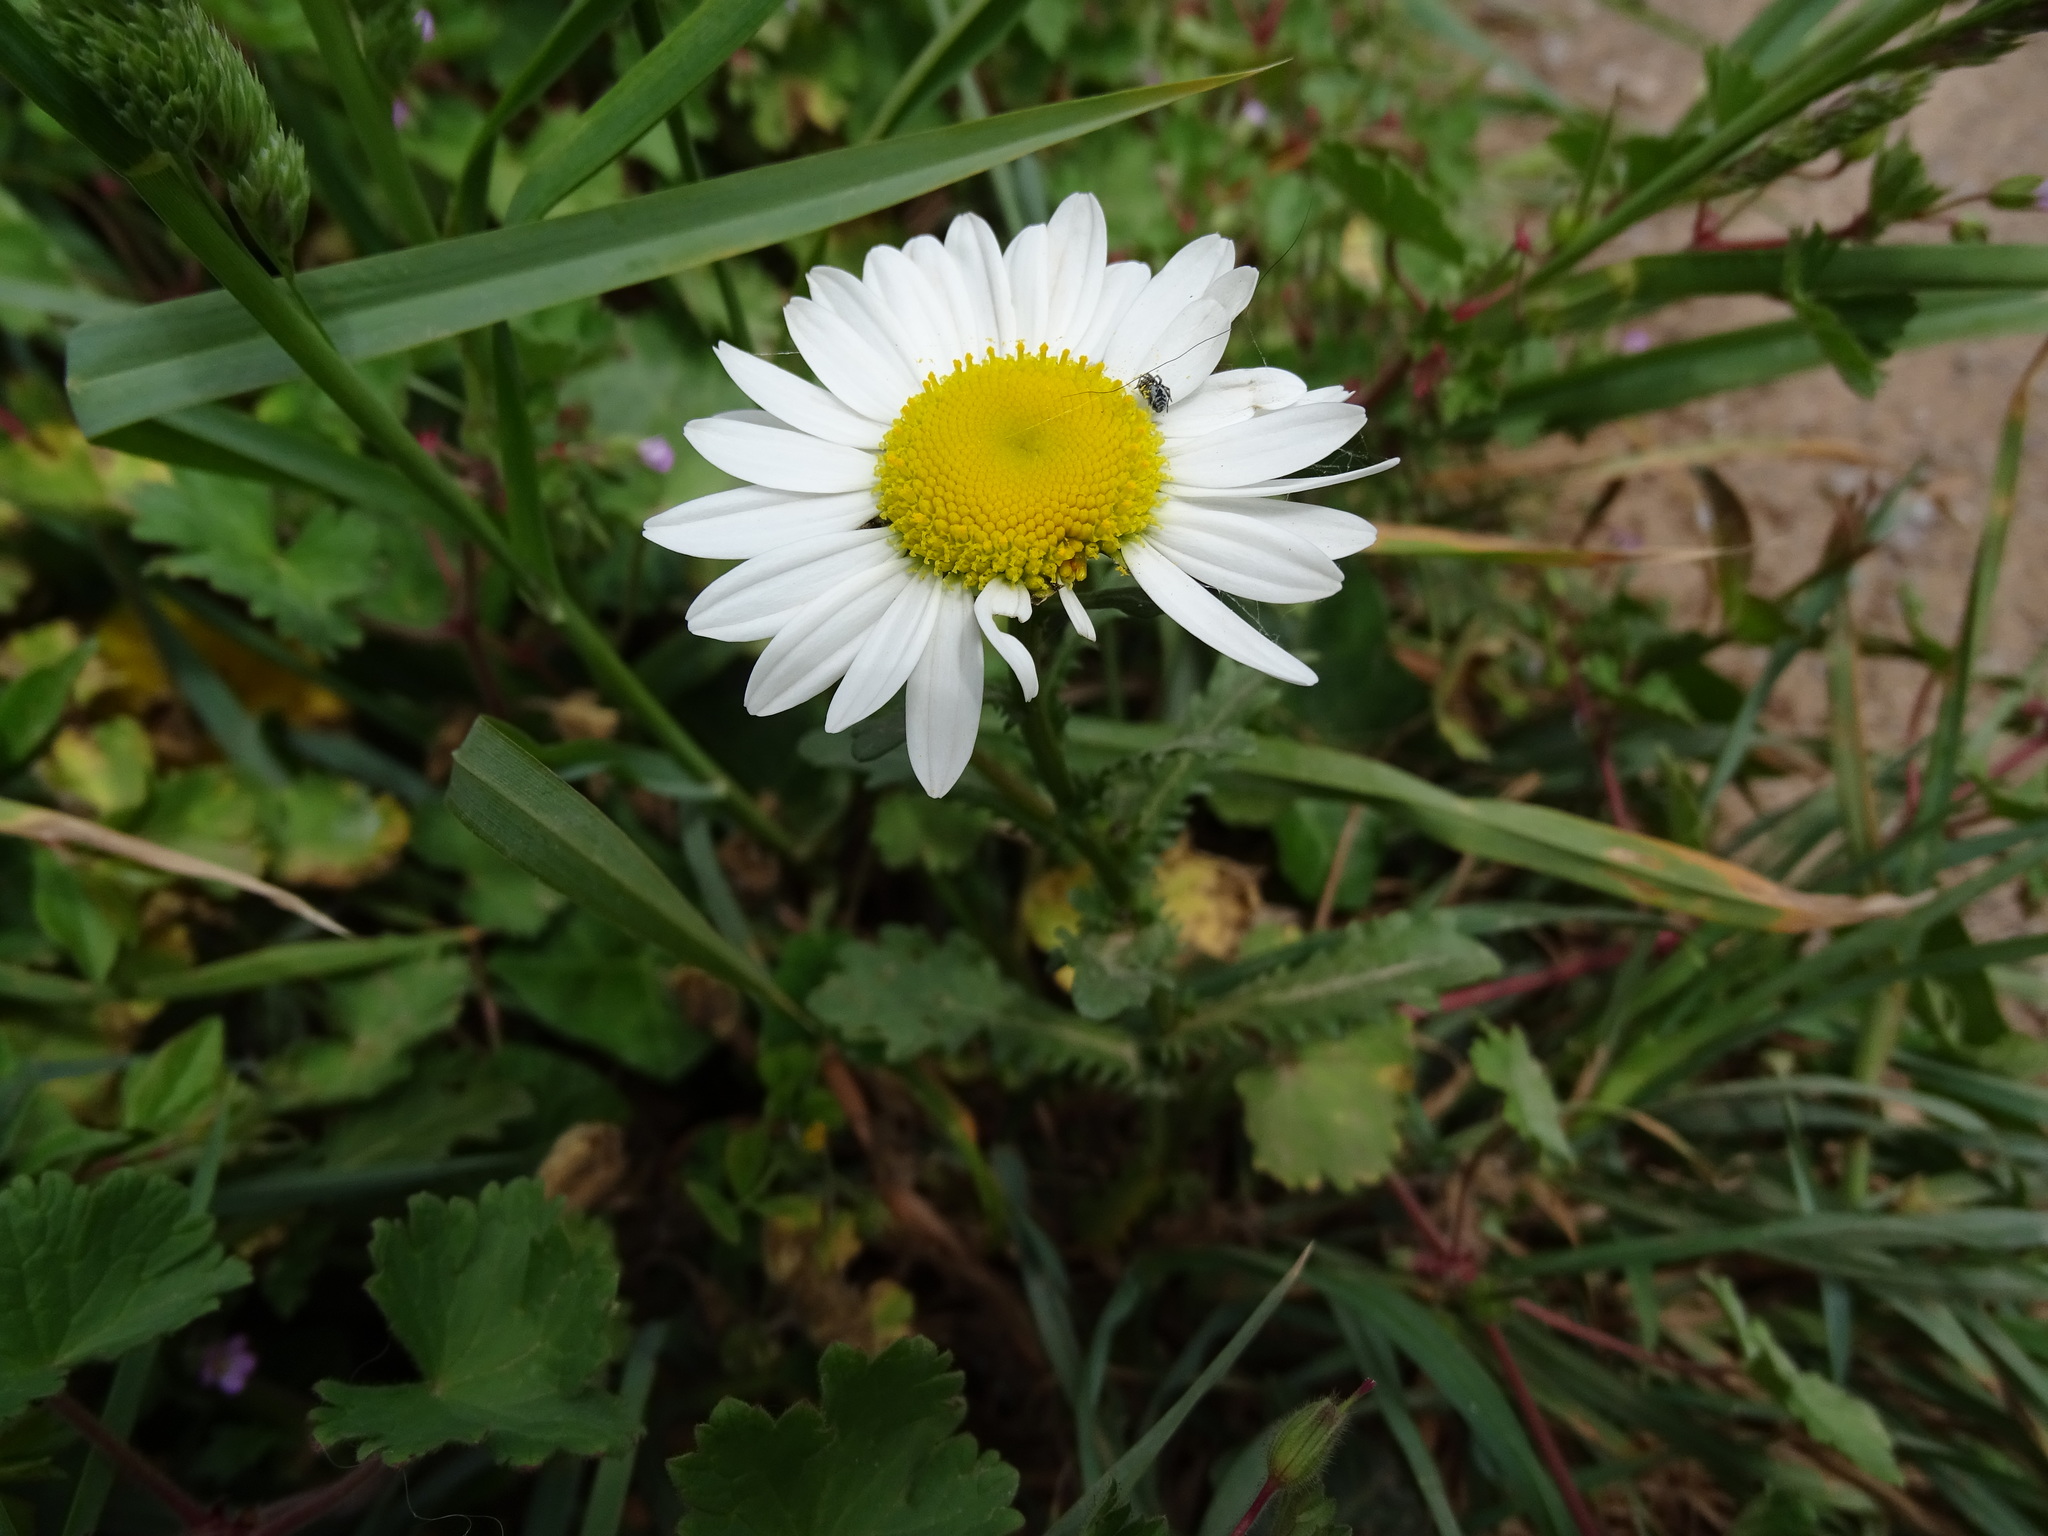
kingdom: Plantae
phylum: Tracheophyta
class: Magnoliopsida
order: Asterales
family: Asteraceae
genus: Leucanthemum
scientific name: Leucanthemum vulgare
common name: Oxeye daisy
